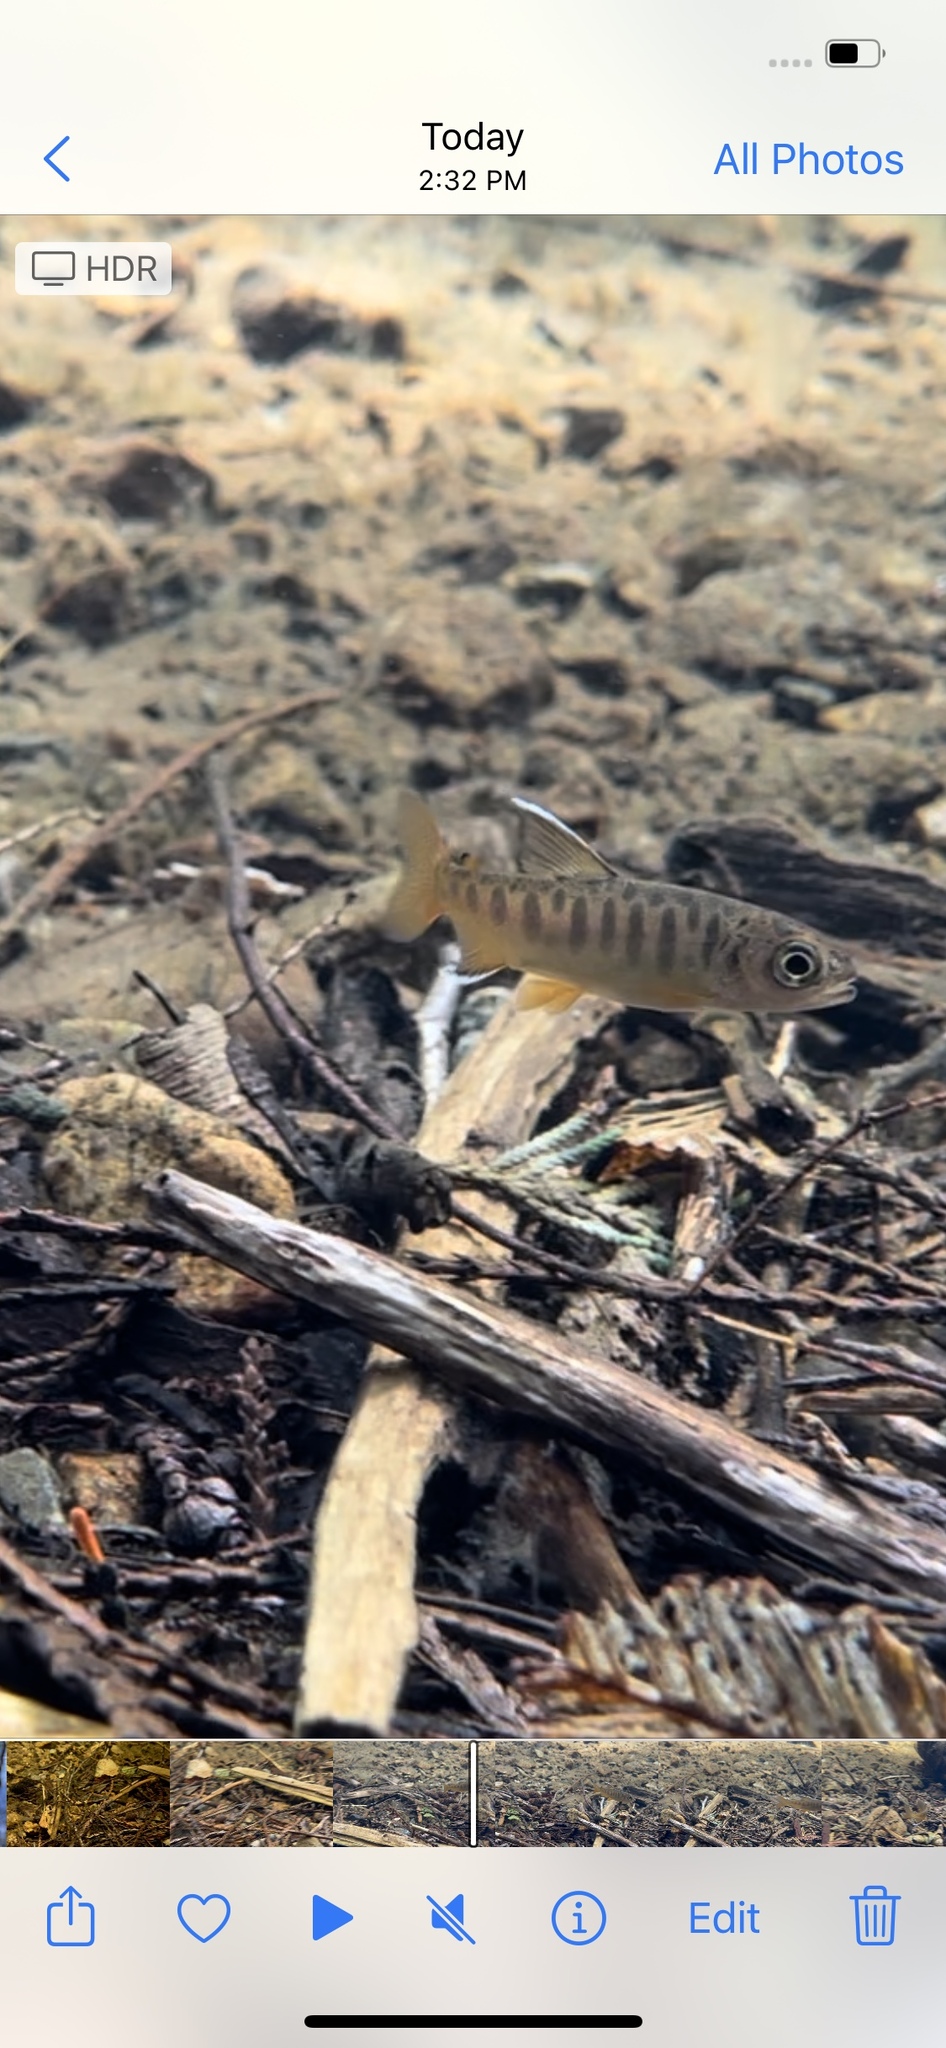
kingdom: Animalia
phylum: Chordata
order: Salmoniformes
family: Salmonidae
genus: Oncorhynchus
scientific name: Oncorhynchus kisutch
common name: Coho salmon
